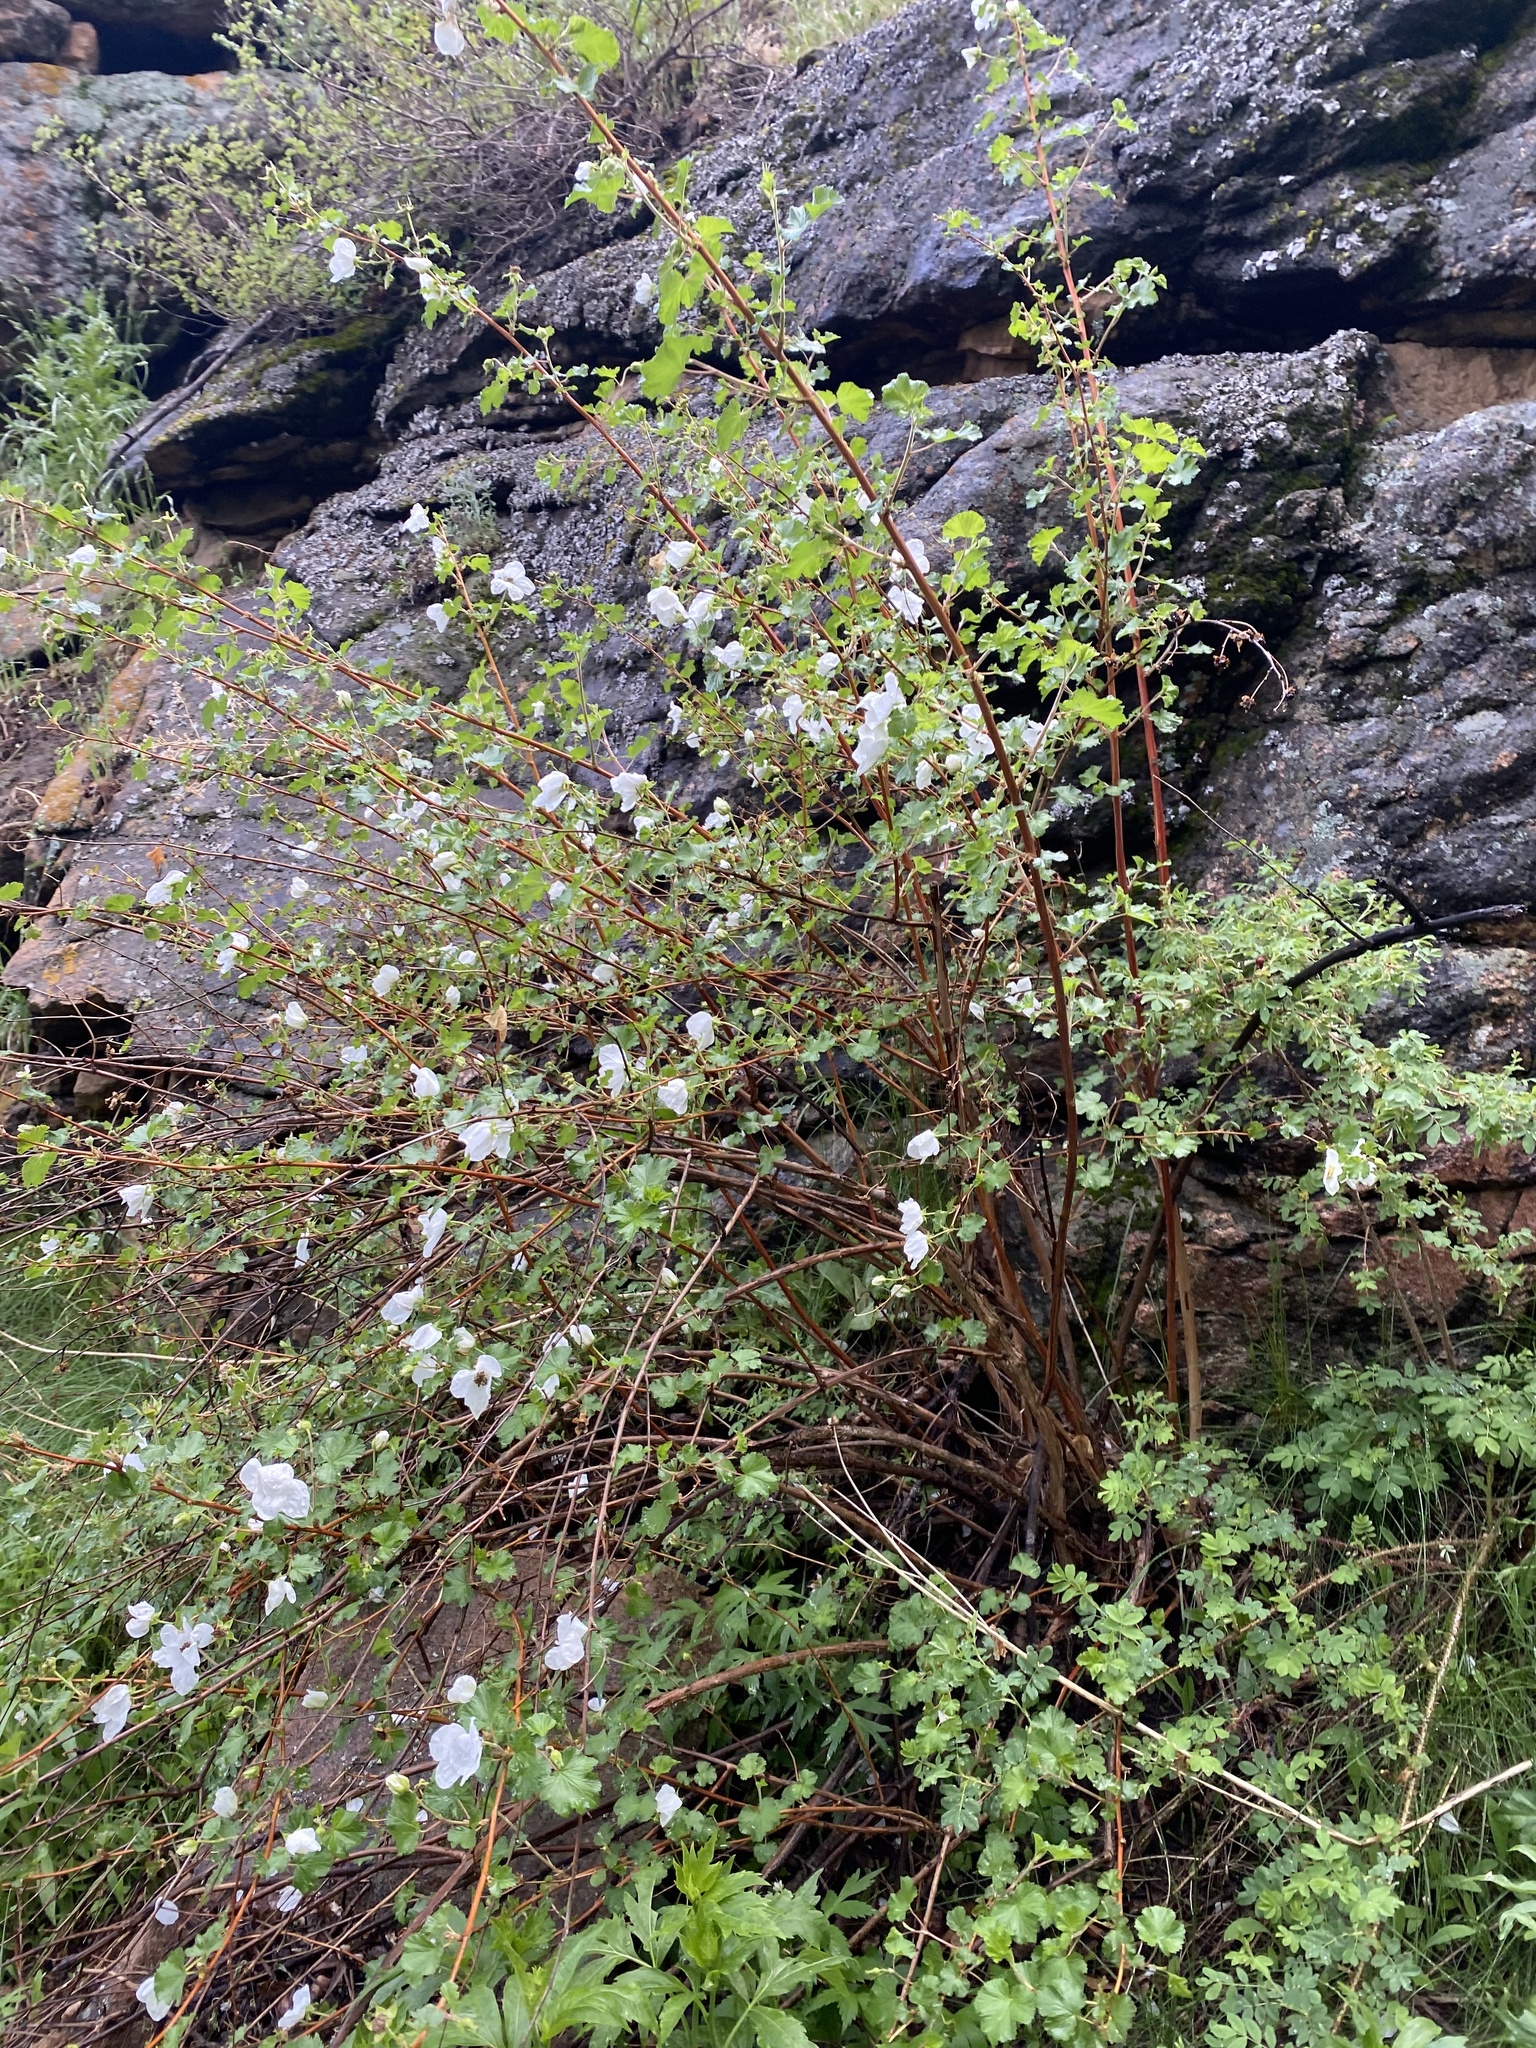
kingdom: Plantae
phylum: Tracheophyta
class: Magnoliopsida
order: Rosales
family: Rosaceae
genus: Rubus
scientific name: Rubus deliciosus
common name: Rocky mountain raspberry
